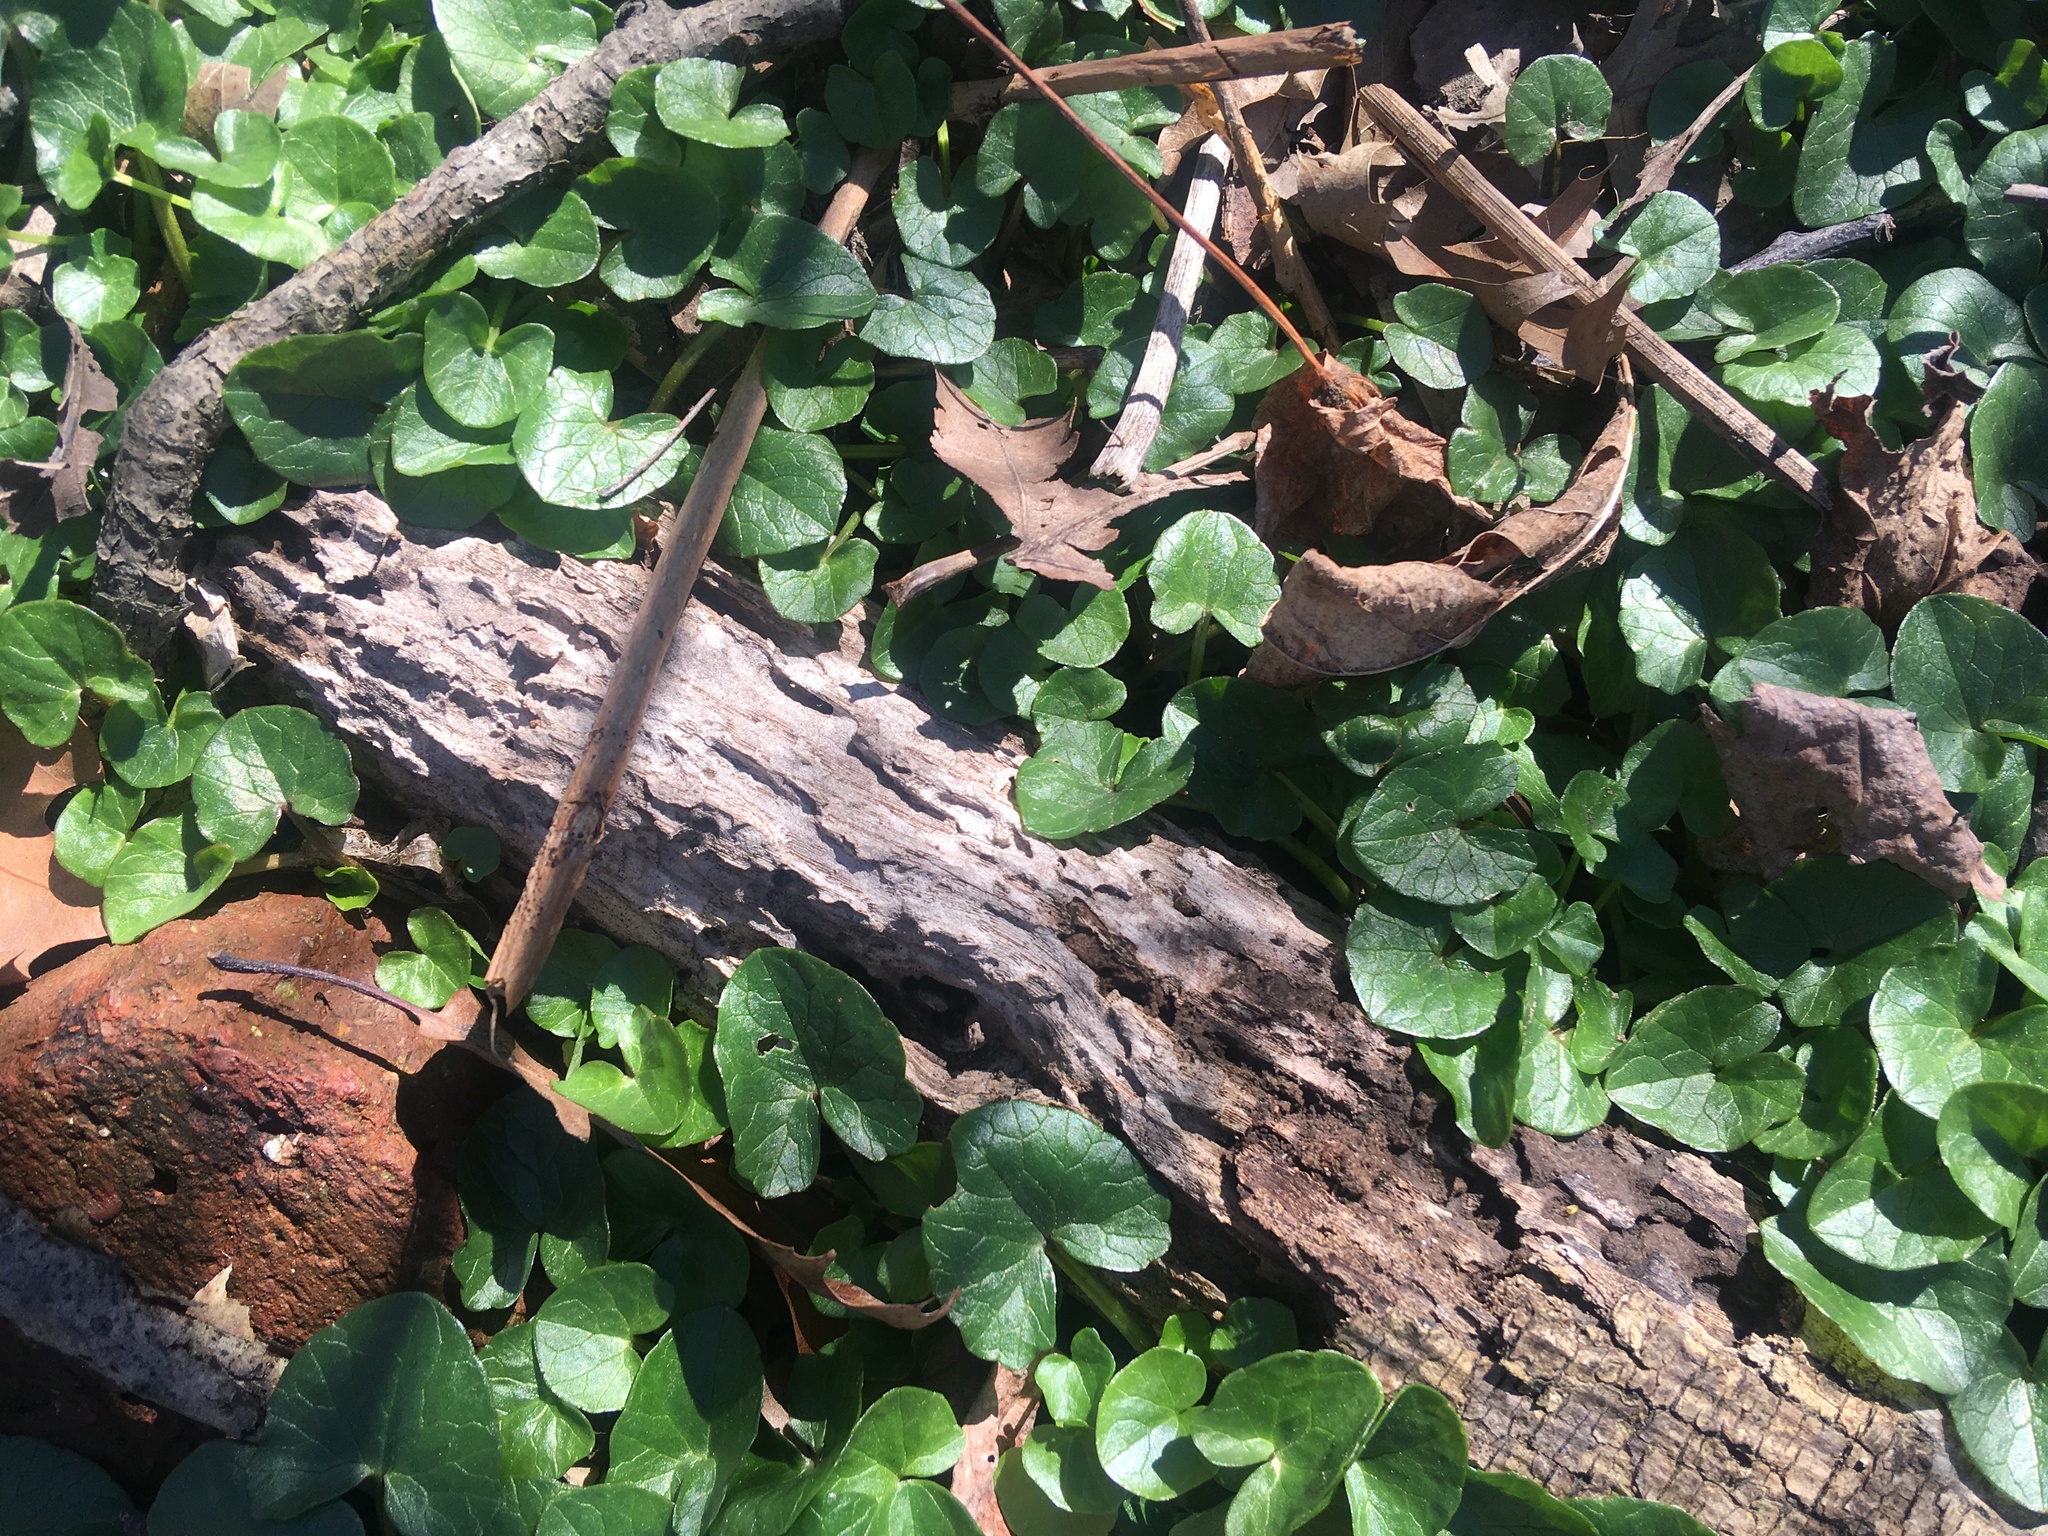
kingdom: Plantae
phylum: Tracheophyta
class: Magnoliopsida
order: Ranunculales
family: Ranunculaceae
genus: Ficaria
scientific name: Ficaria verna
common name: Lesser celandine
